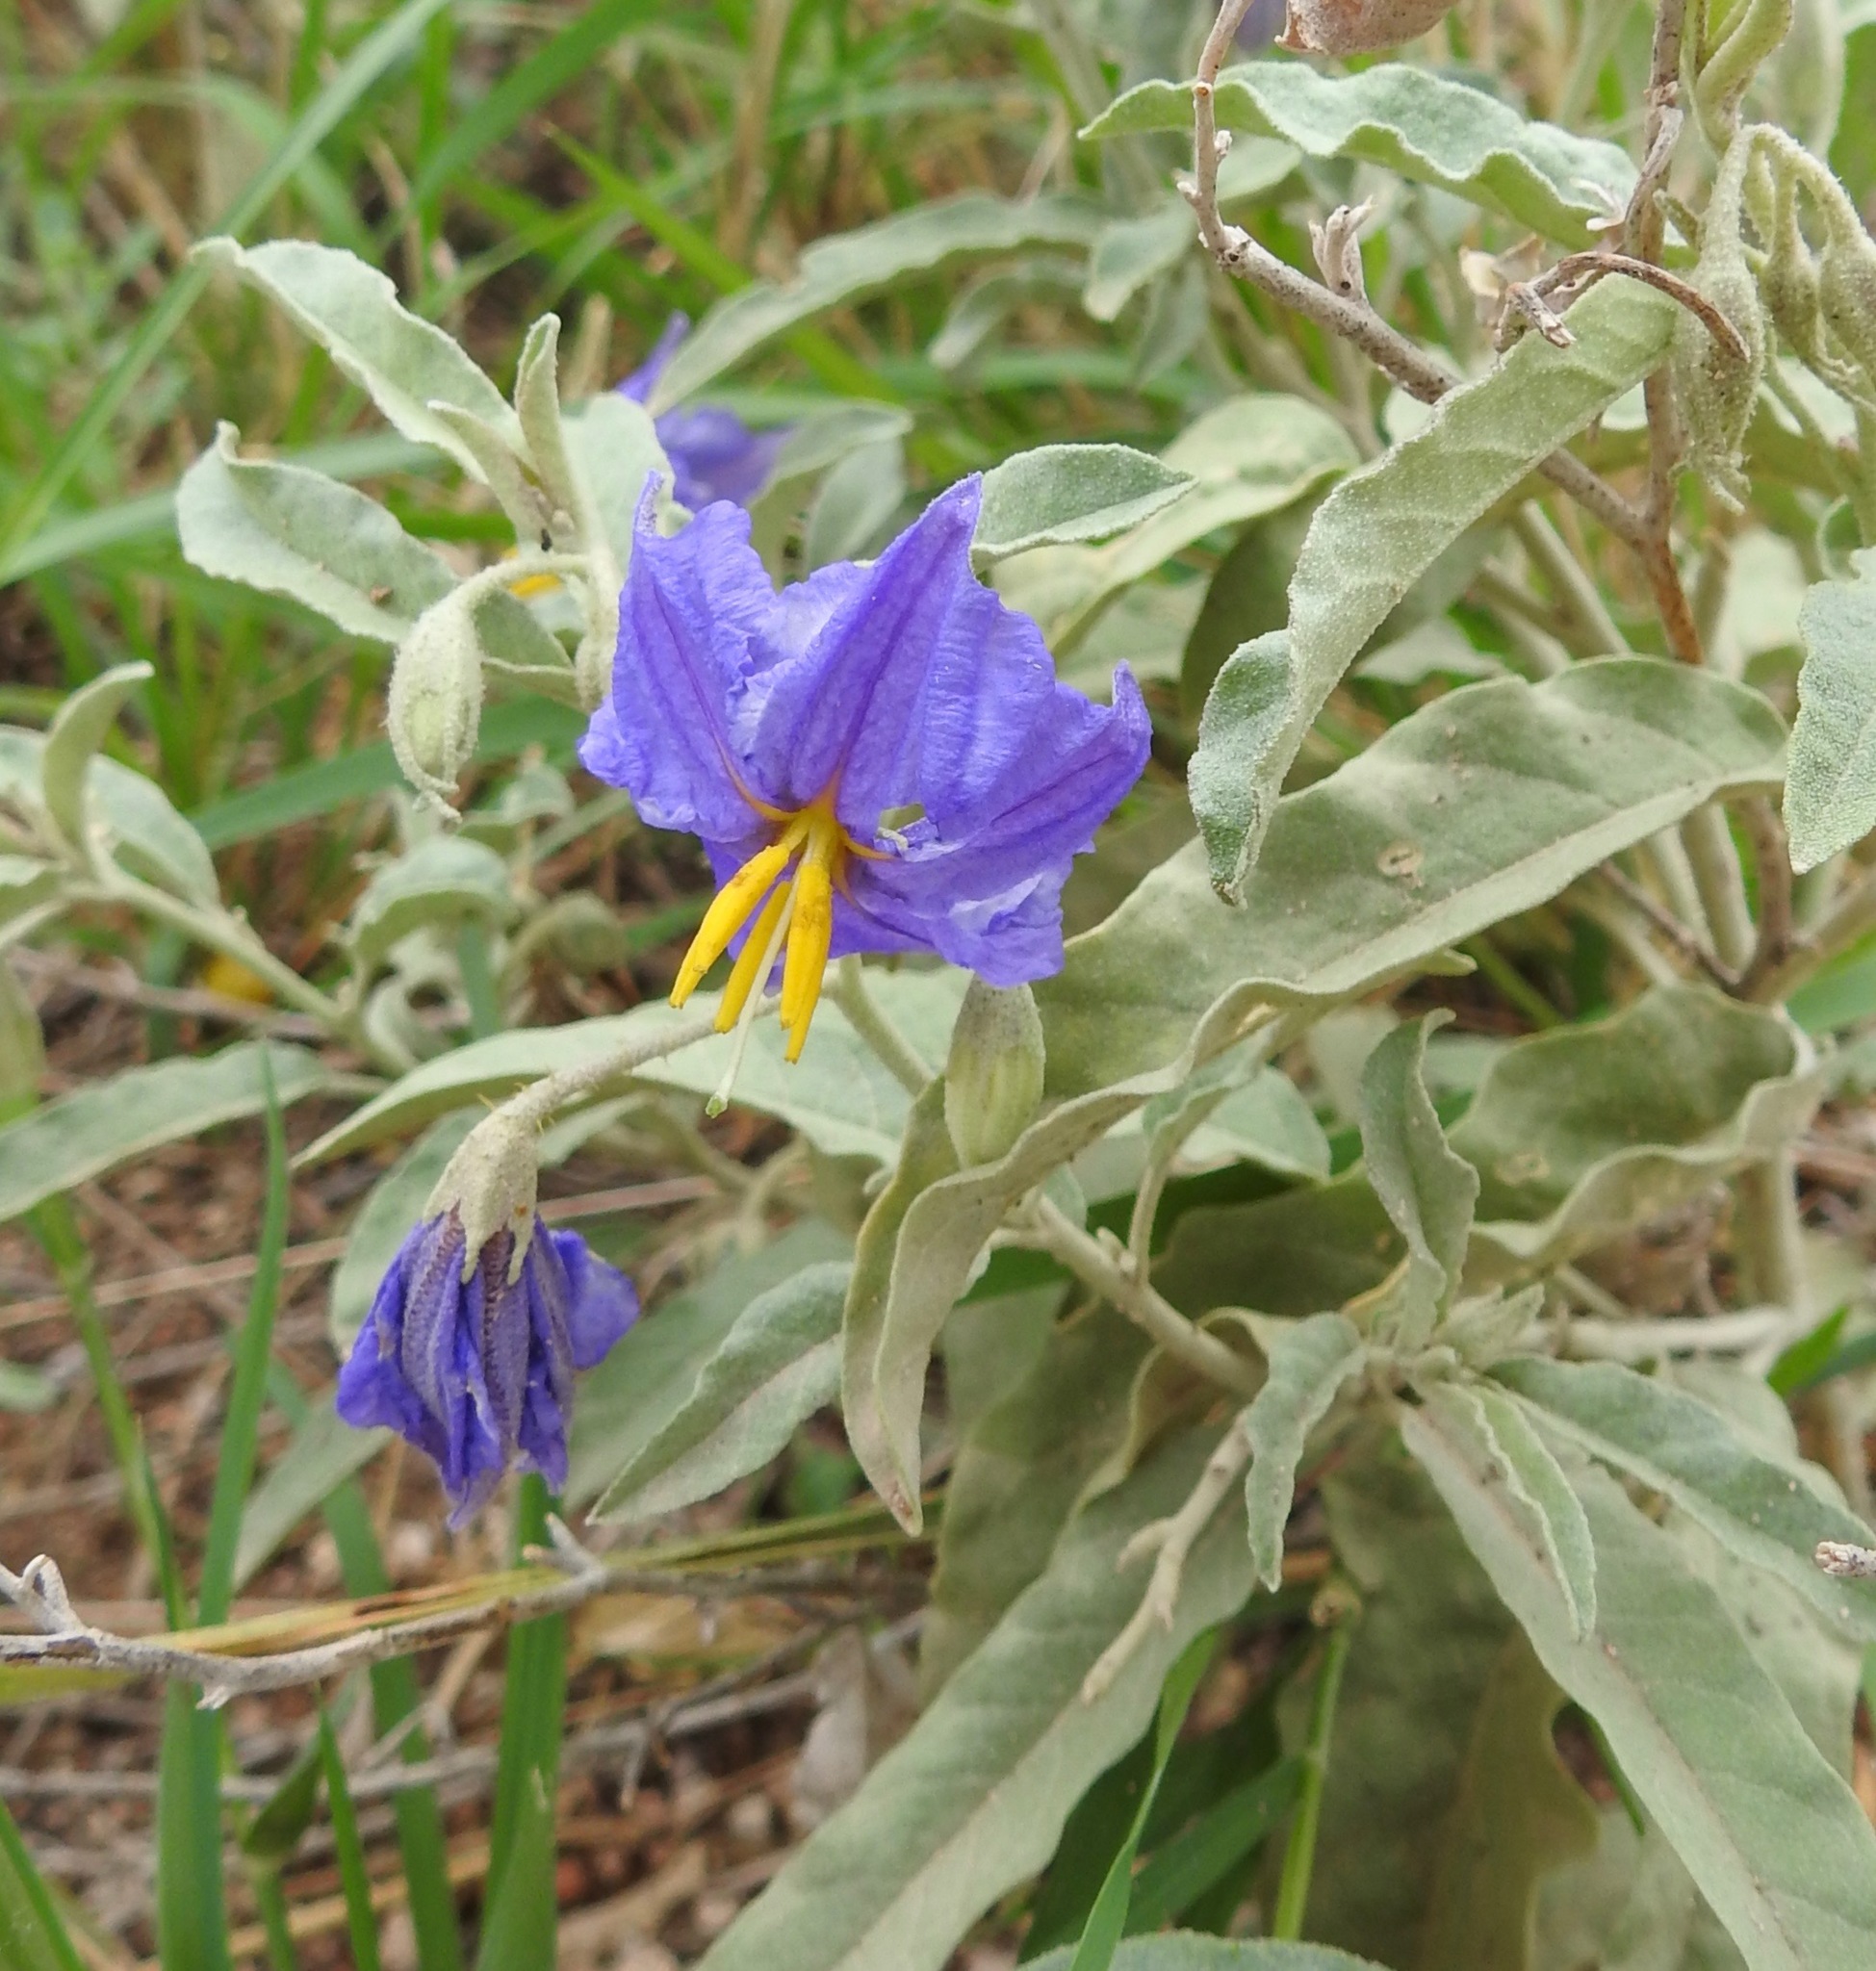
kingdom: Plantae
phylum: Tracheophyta
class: Magnoliopsida
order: Solanales
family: Solanaceae
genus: Solanum
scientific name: Solanum elaeagnifolium
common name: Silverleaf nightshade
